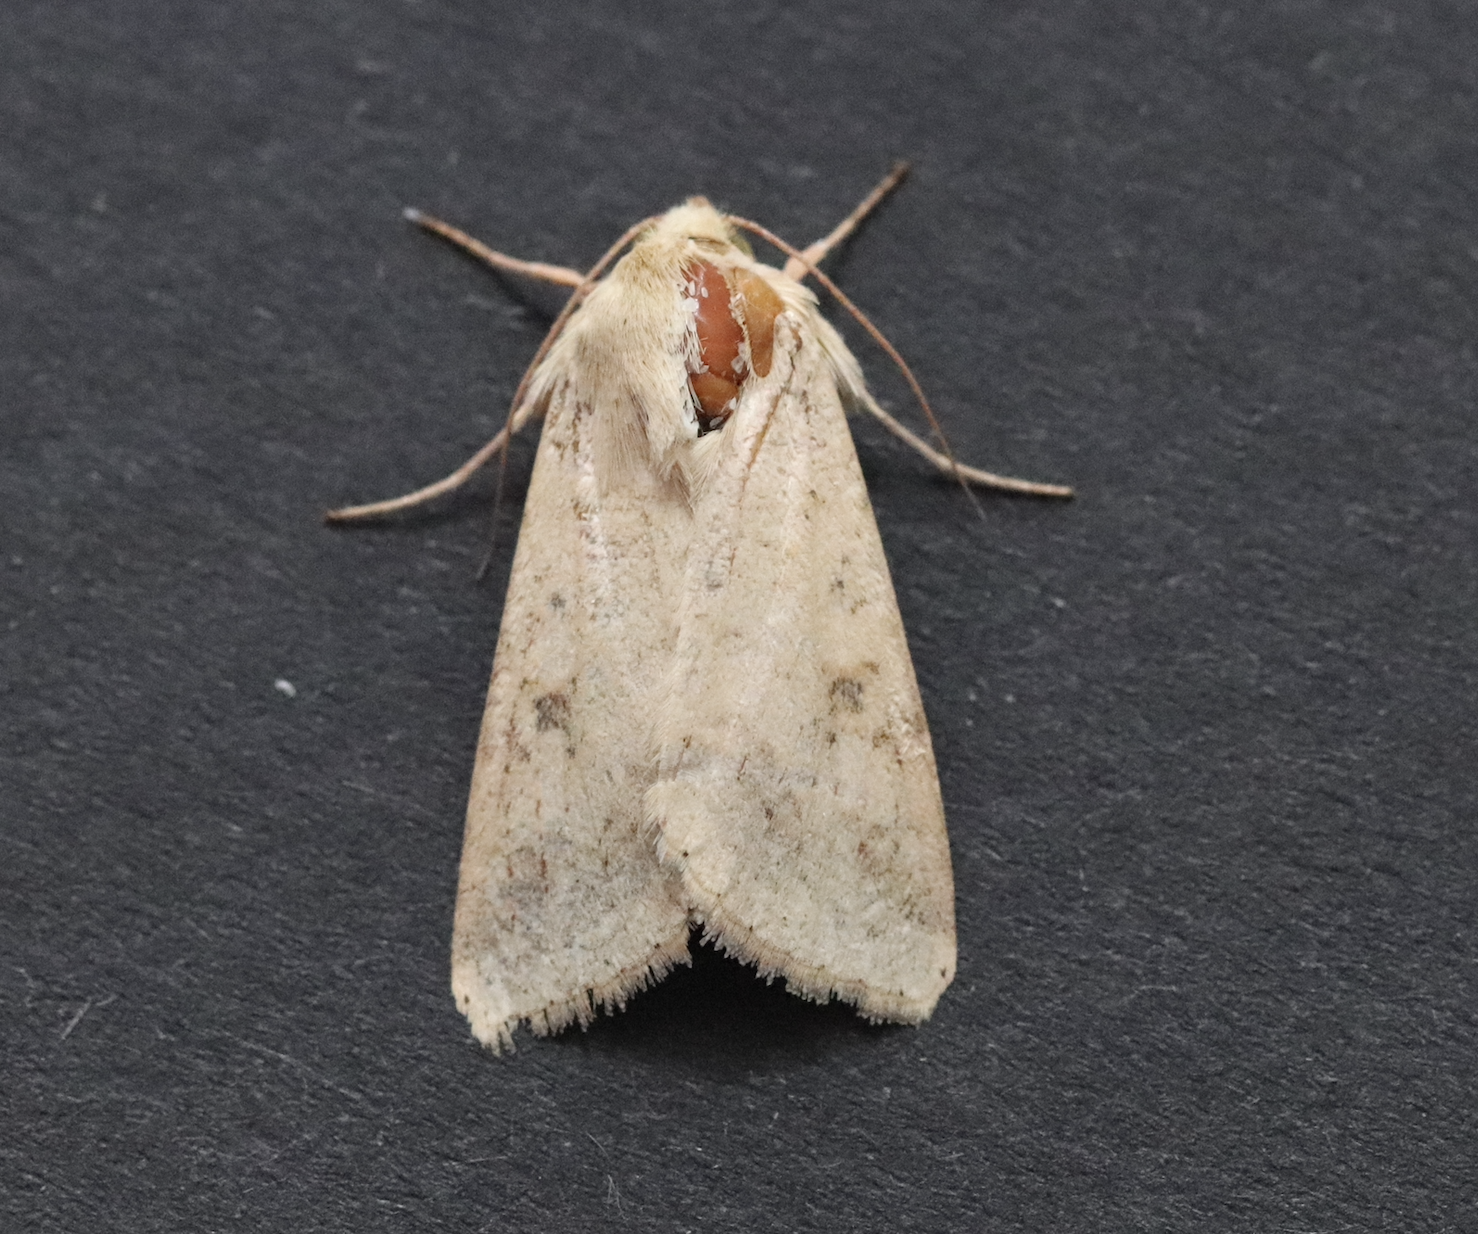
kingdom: Animalia
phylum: Arthropoda
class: Insecta
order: Lepidoptera
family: Noctuidae
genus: Helicoverpa
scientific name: Helicoverpa armigera
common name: Cotton bollworm
